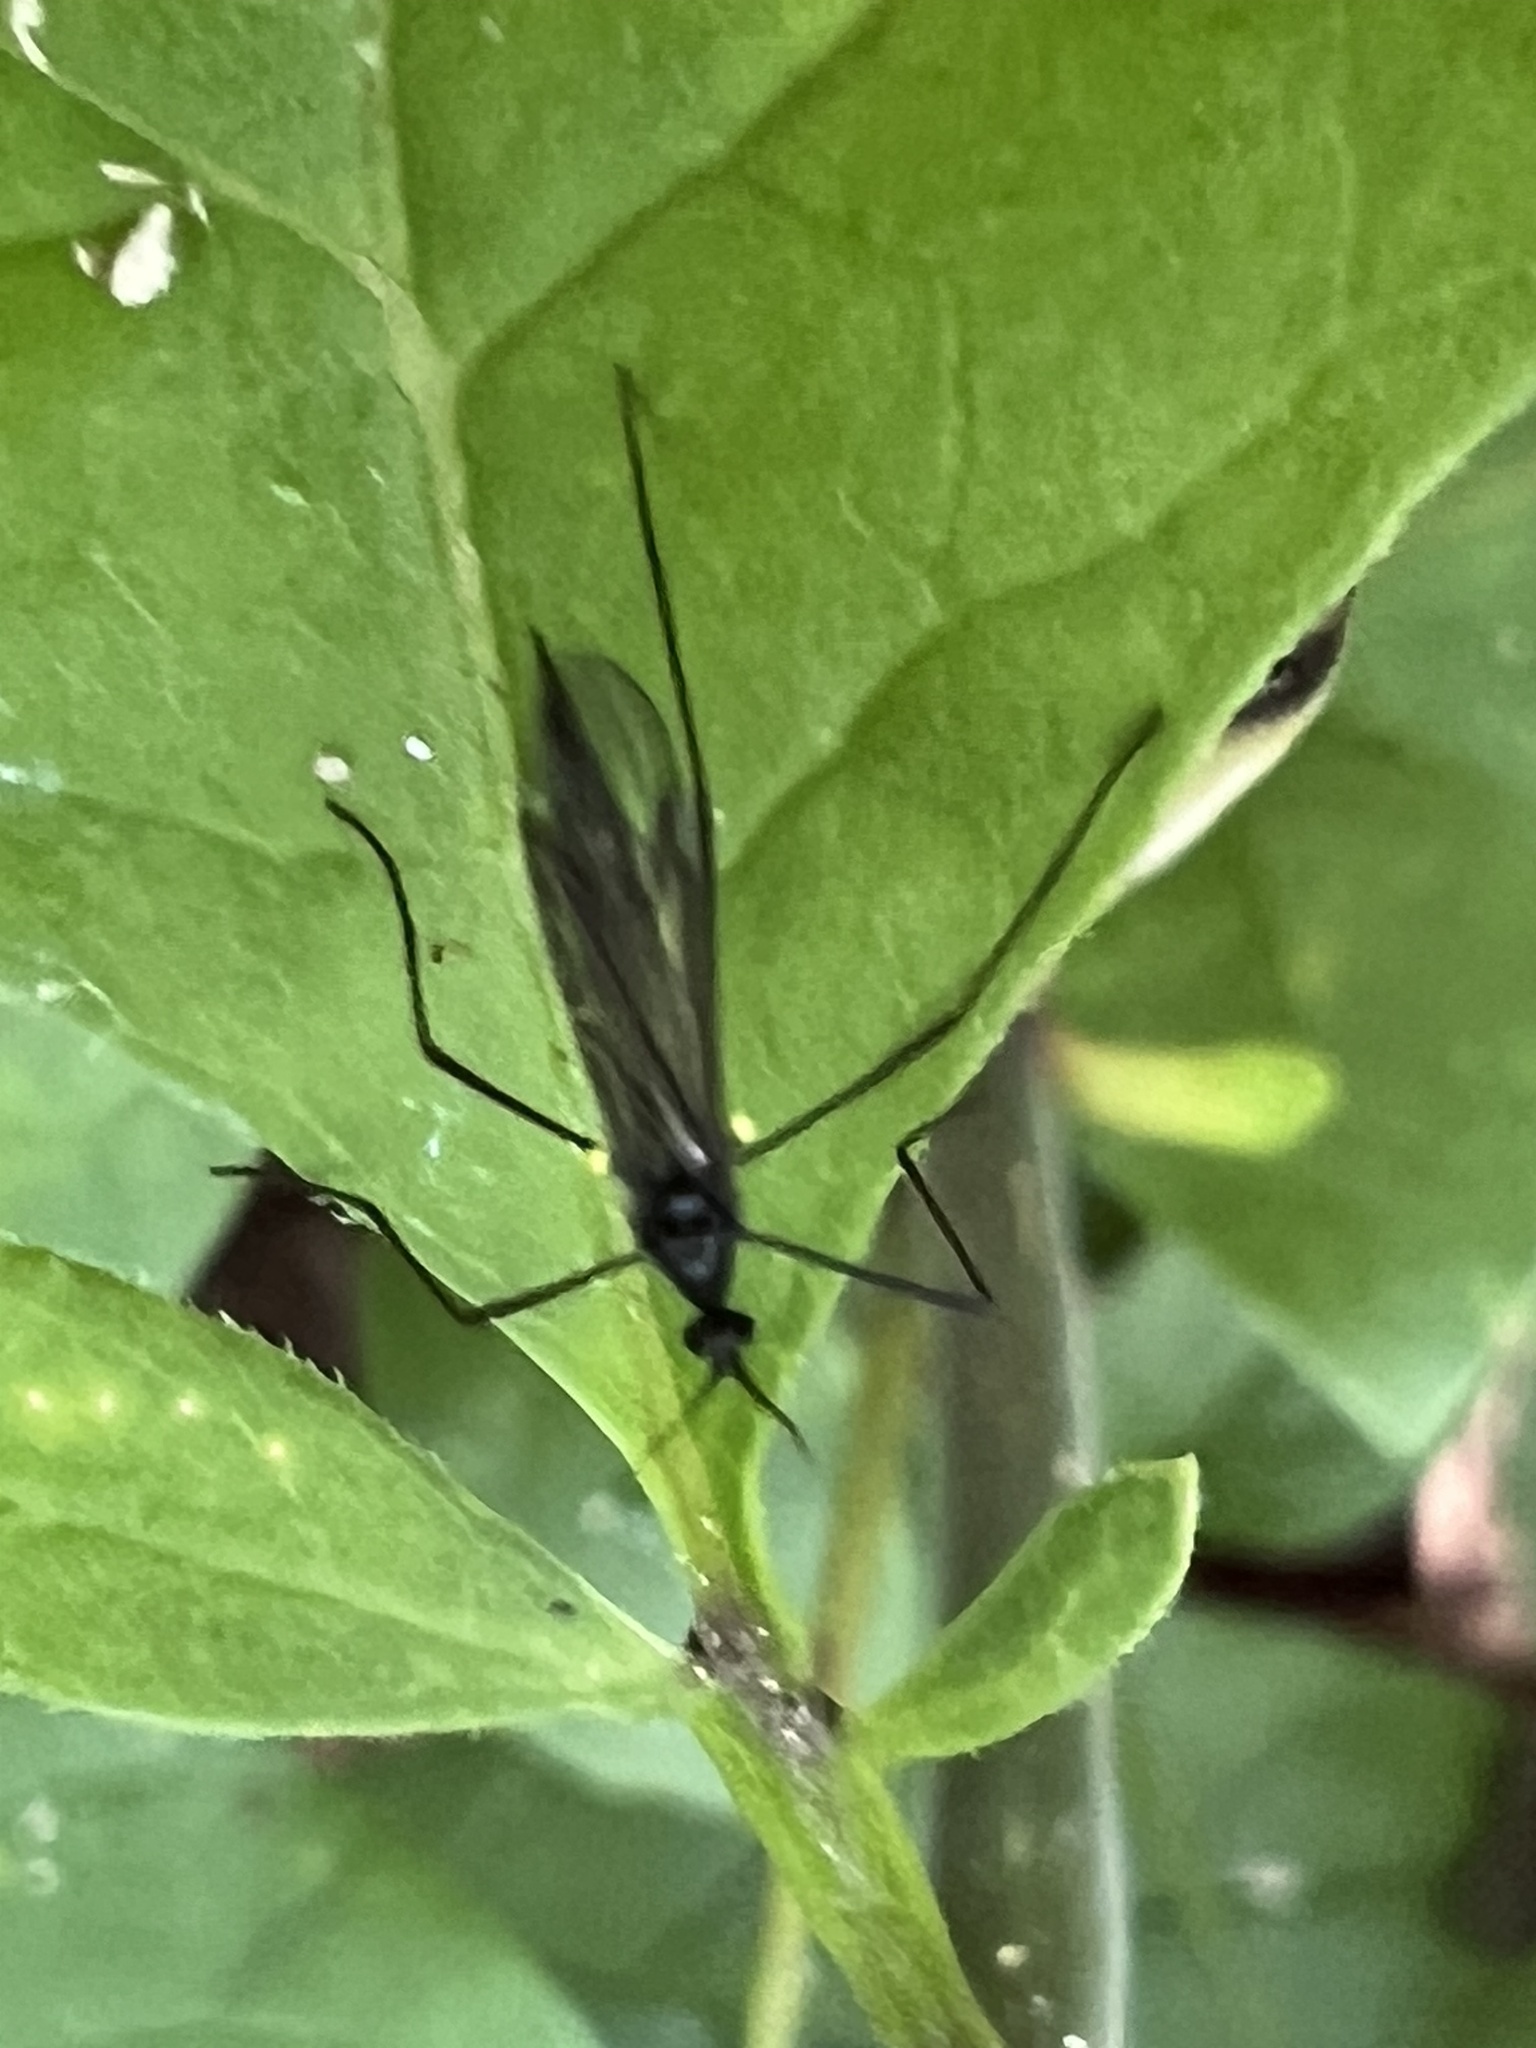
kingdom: Animalia
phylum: Arthropoda
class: Insecta
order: Diptera
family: Limoniidae
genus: Gnophomyia
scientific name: Gnophomyia tristissima
